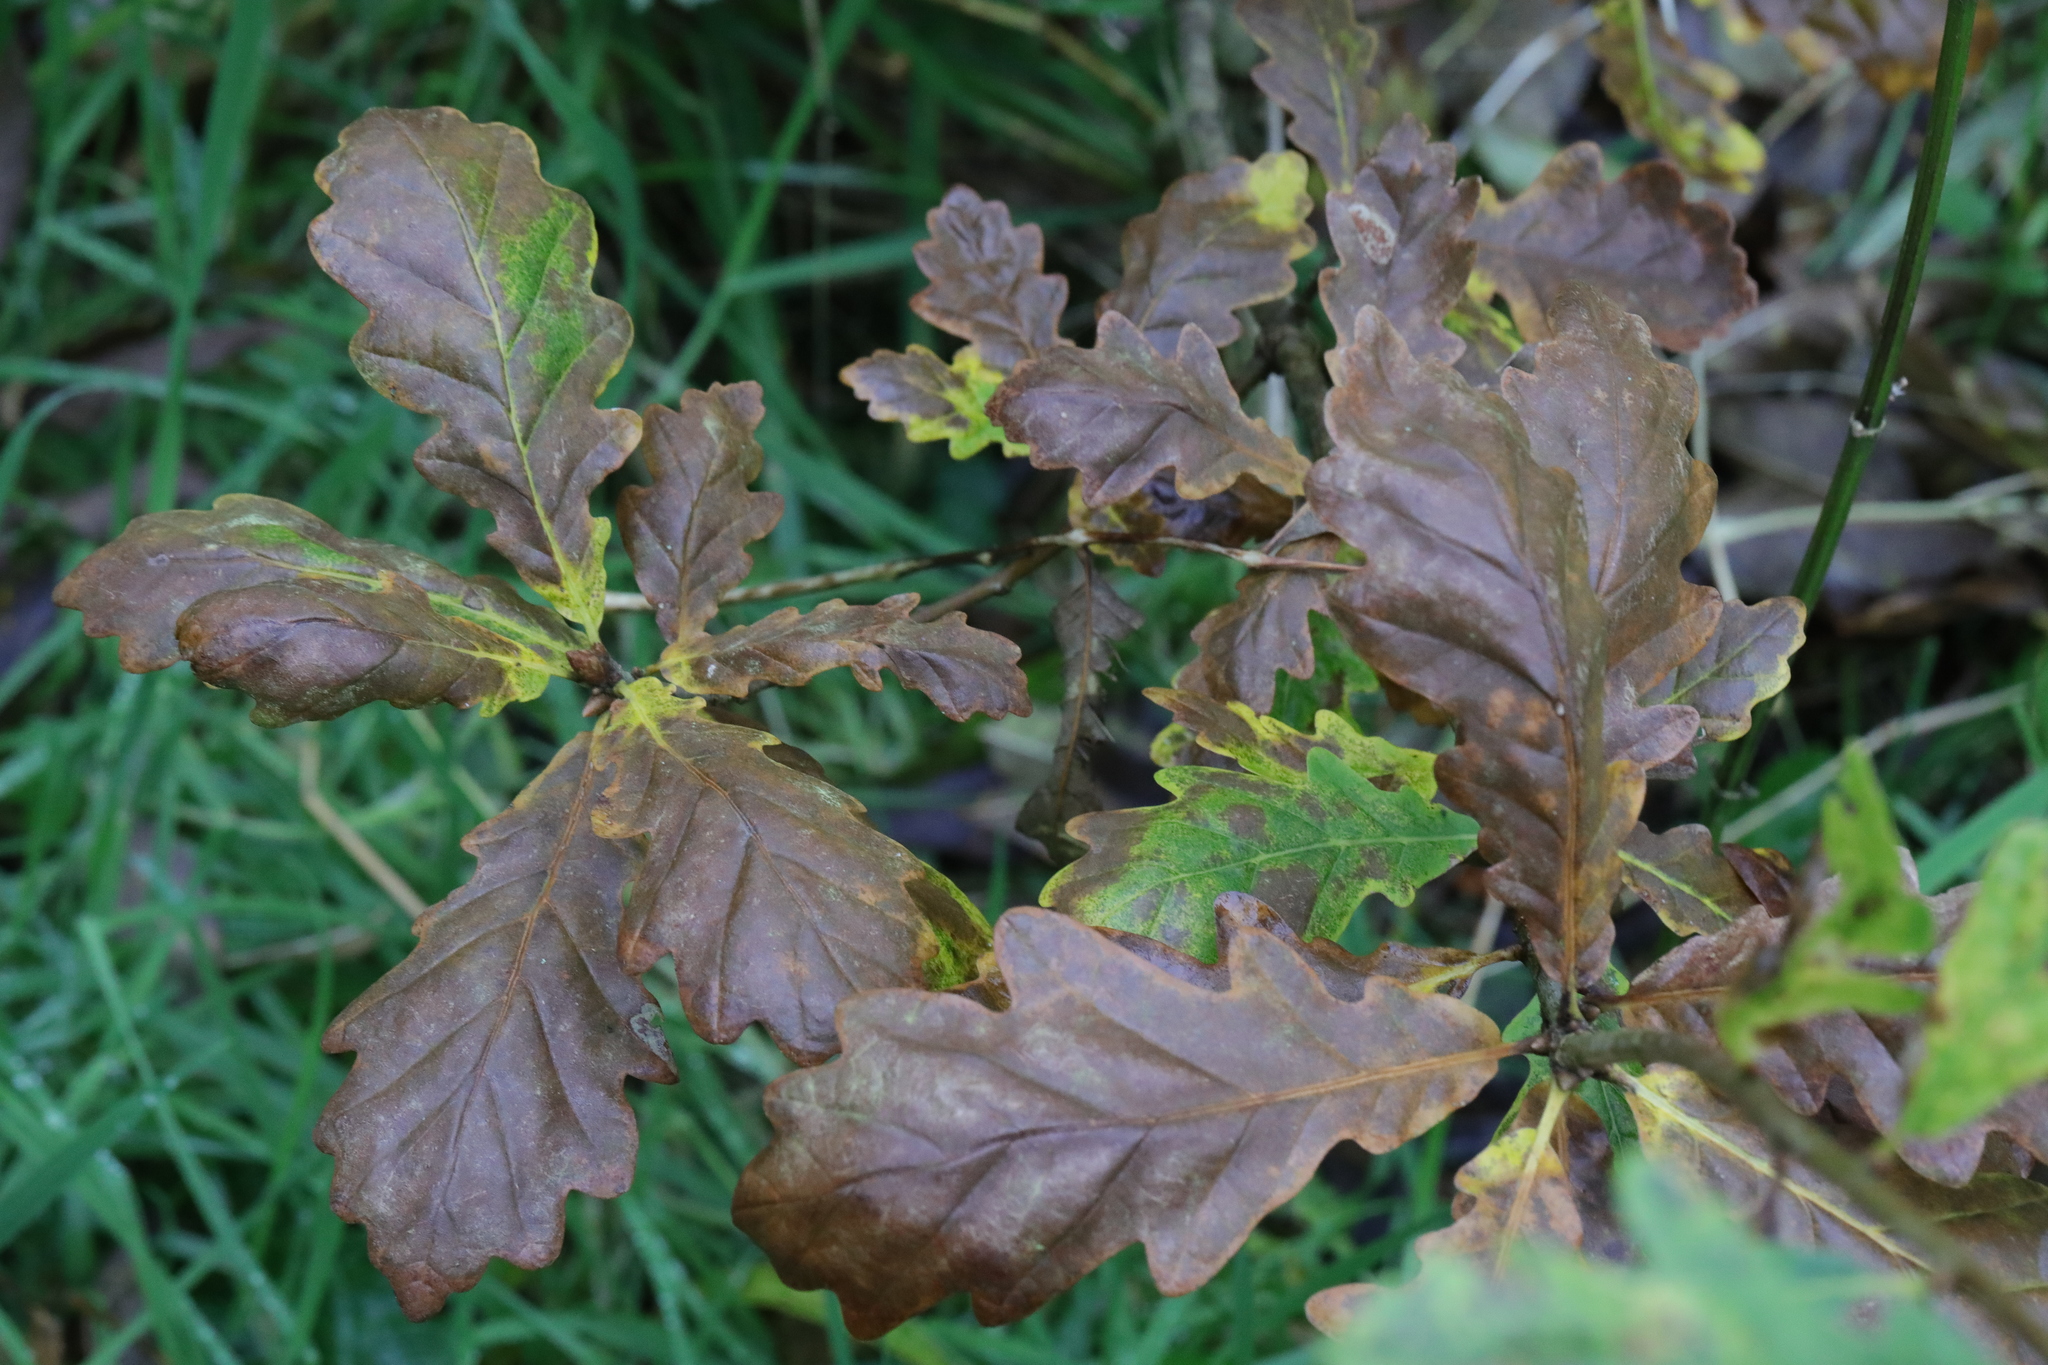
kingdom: Plantae
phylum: Tracheophyta
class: Magnoliopsida
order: Fagales
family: Fagaceae
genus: Quercus
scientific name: Quercus robur
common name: Pedunculate oak
